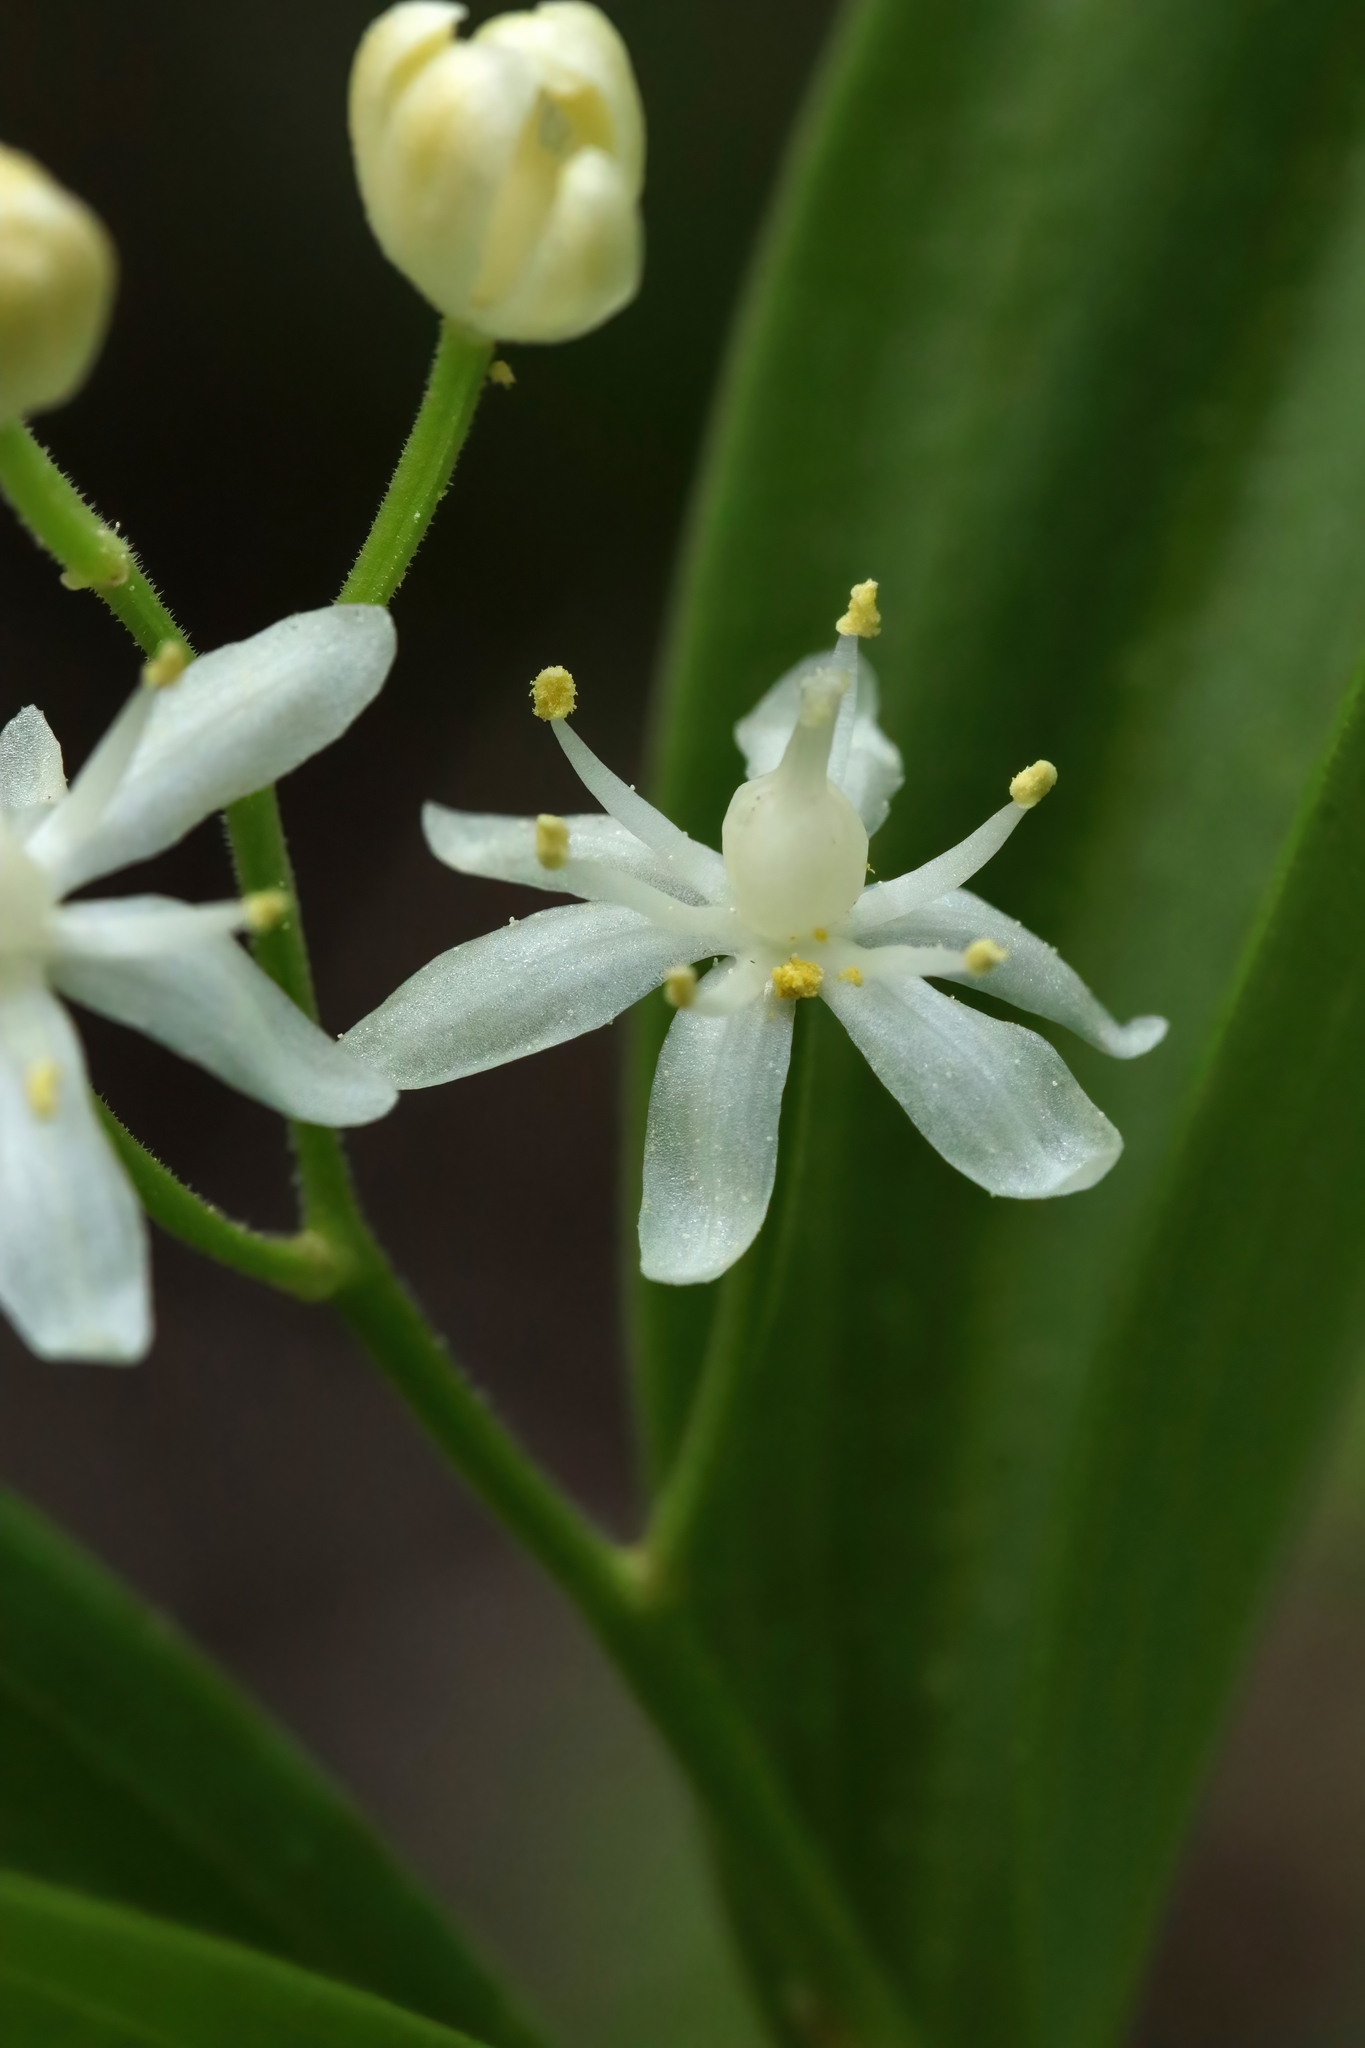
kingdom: Plantae
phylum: Tracheophyta
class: Liliopsida
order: Asparagales
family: Asparagaceae
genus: Maianthemum
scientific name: Maianthemum stellatum
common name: Little false solomon's seal
